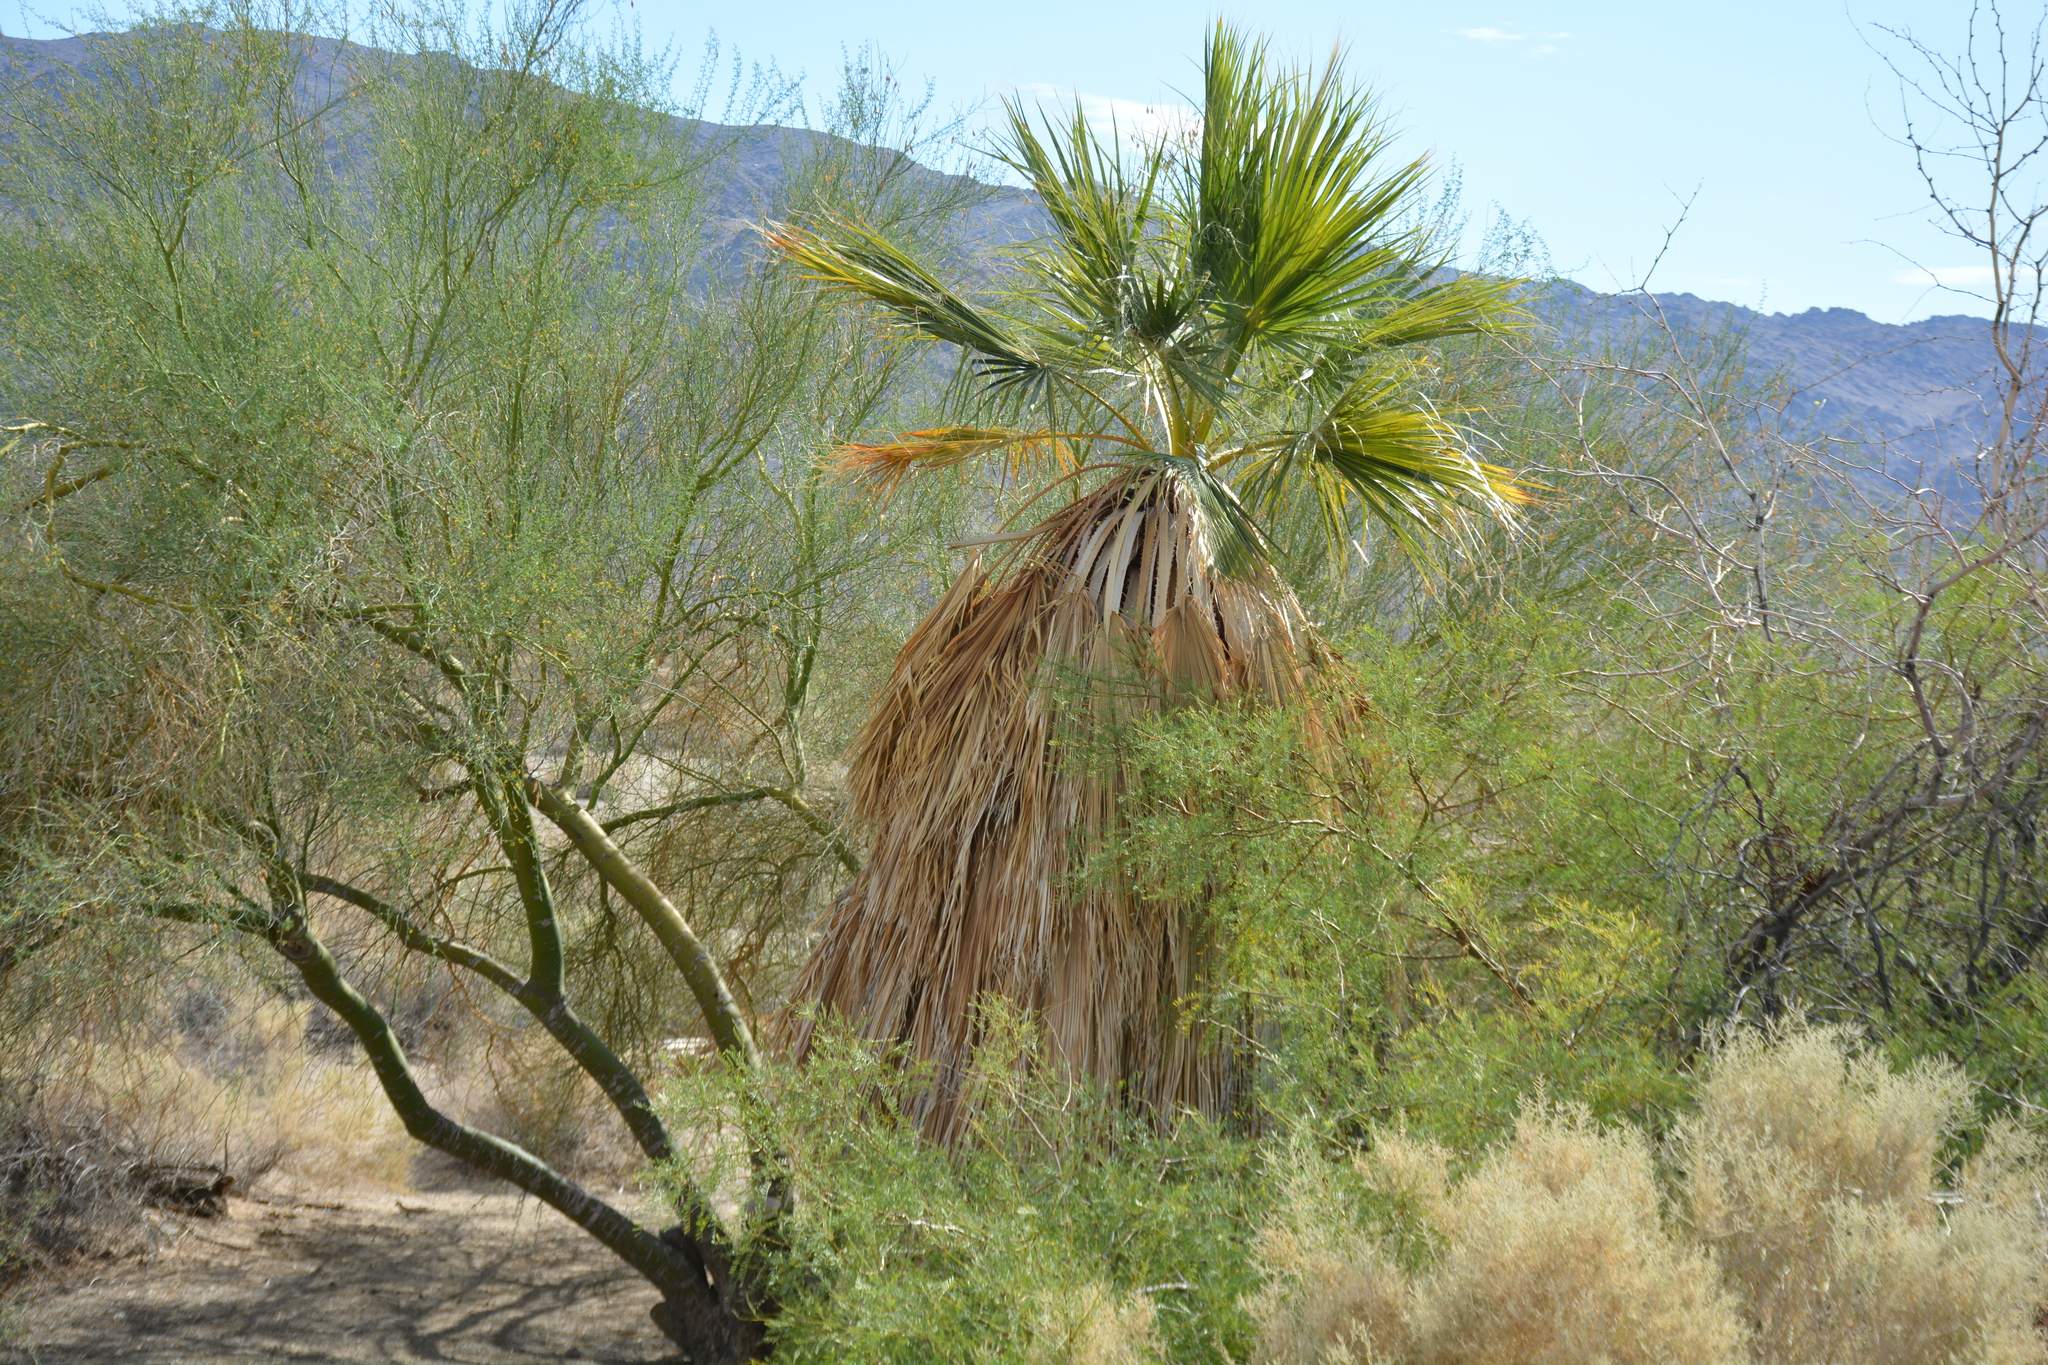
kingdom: Plantae
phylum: Tracheophyta
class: Liliopsida
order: Arecales
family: Arecaceae
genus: Washingtonia
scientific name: Washingtonia filifera
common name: California fan palm
